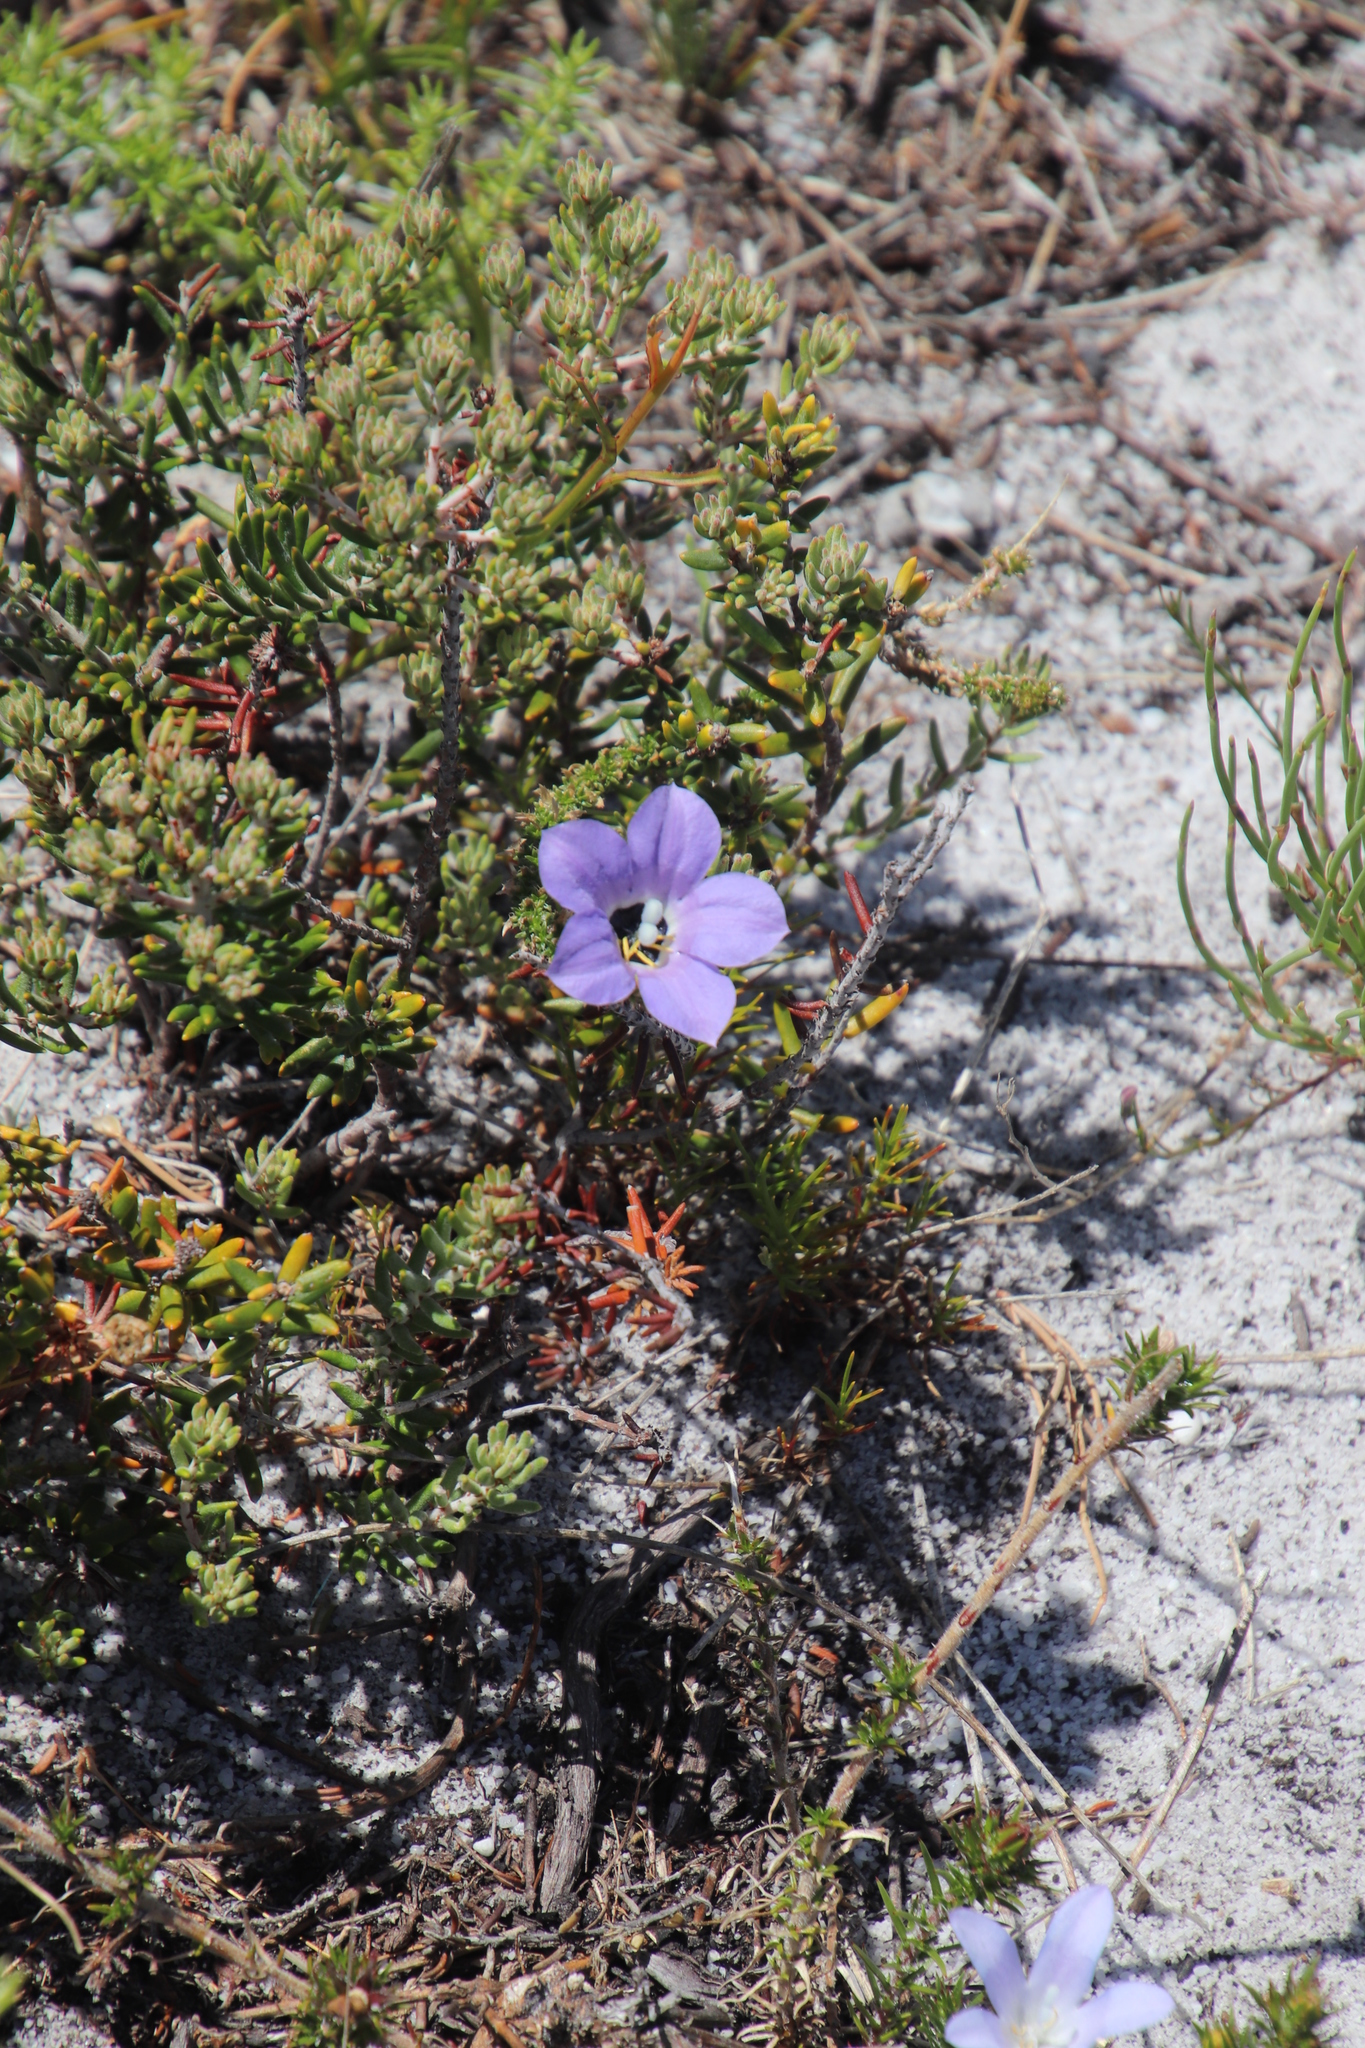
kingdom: Plantae
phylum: Tracheophyta
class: Magnoliopsida
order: Asterales
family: Campanulaceae
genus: Roella
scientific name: Roella prostrata
